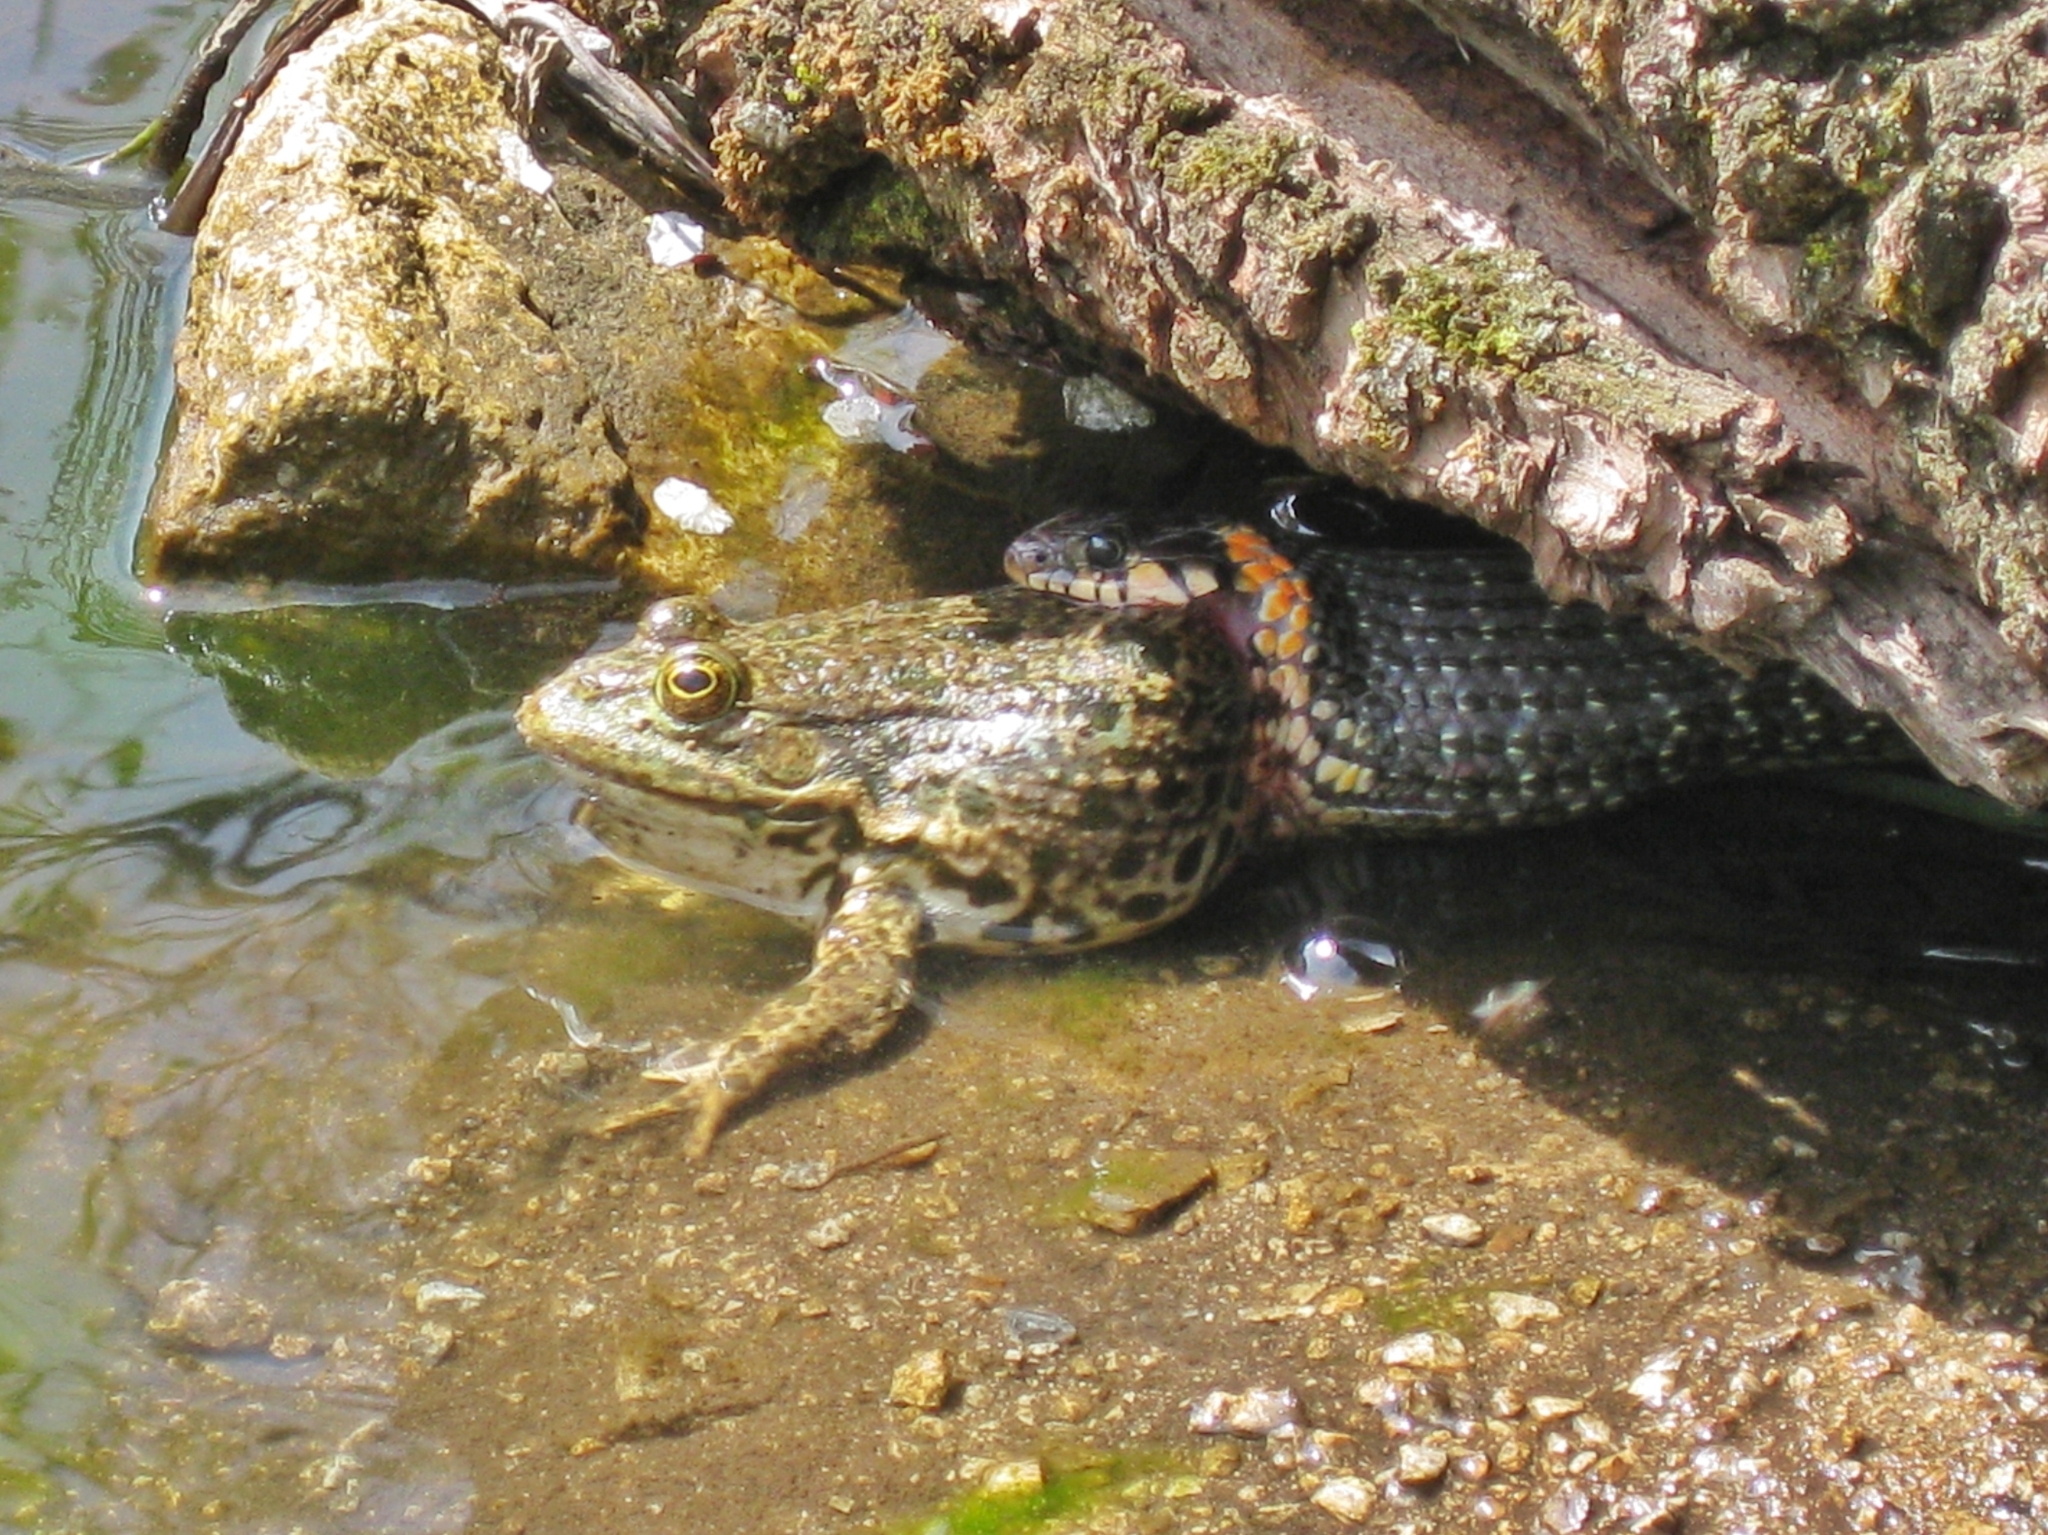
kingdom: Animalia
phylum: Chordata
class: Amphibia
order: Anura
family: Ranidae
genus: Pelophylax
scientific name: Pelophylax ridibundus
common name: Marsh frog
